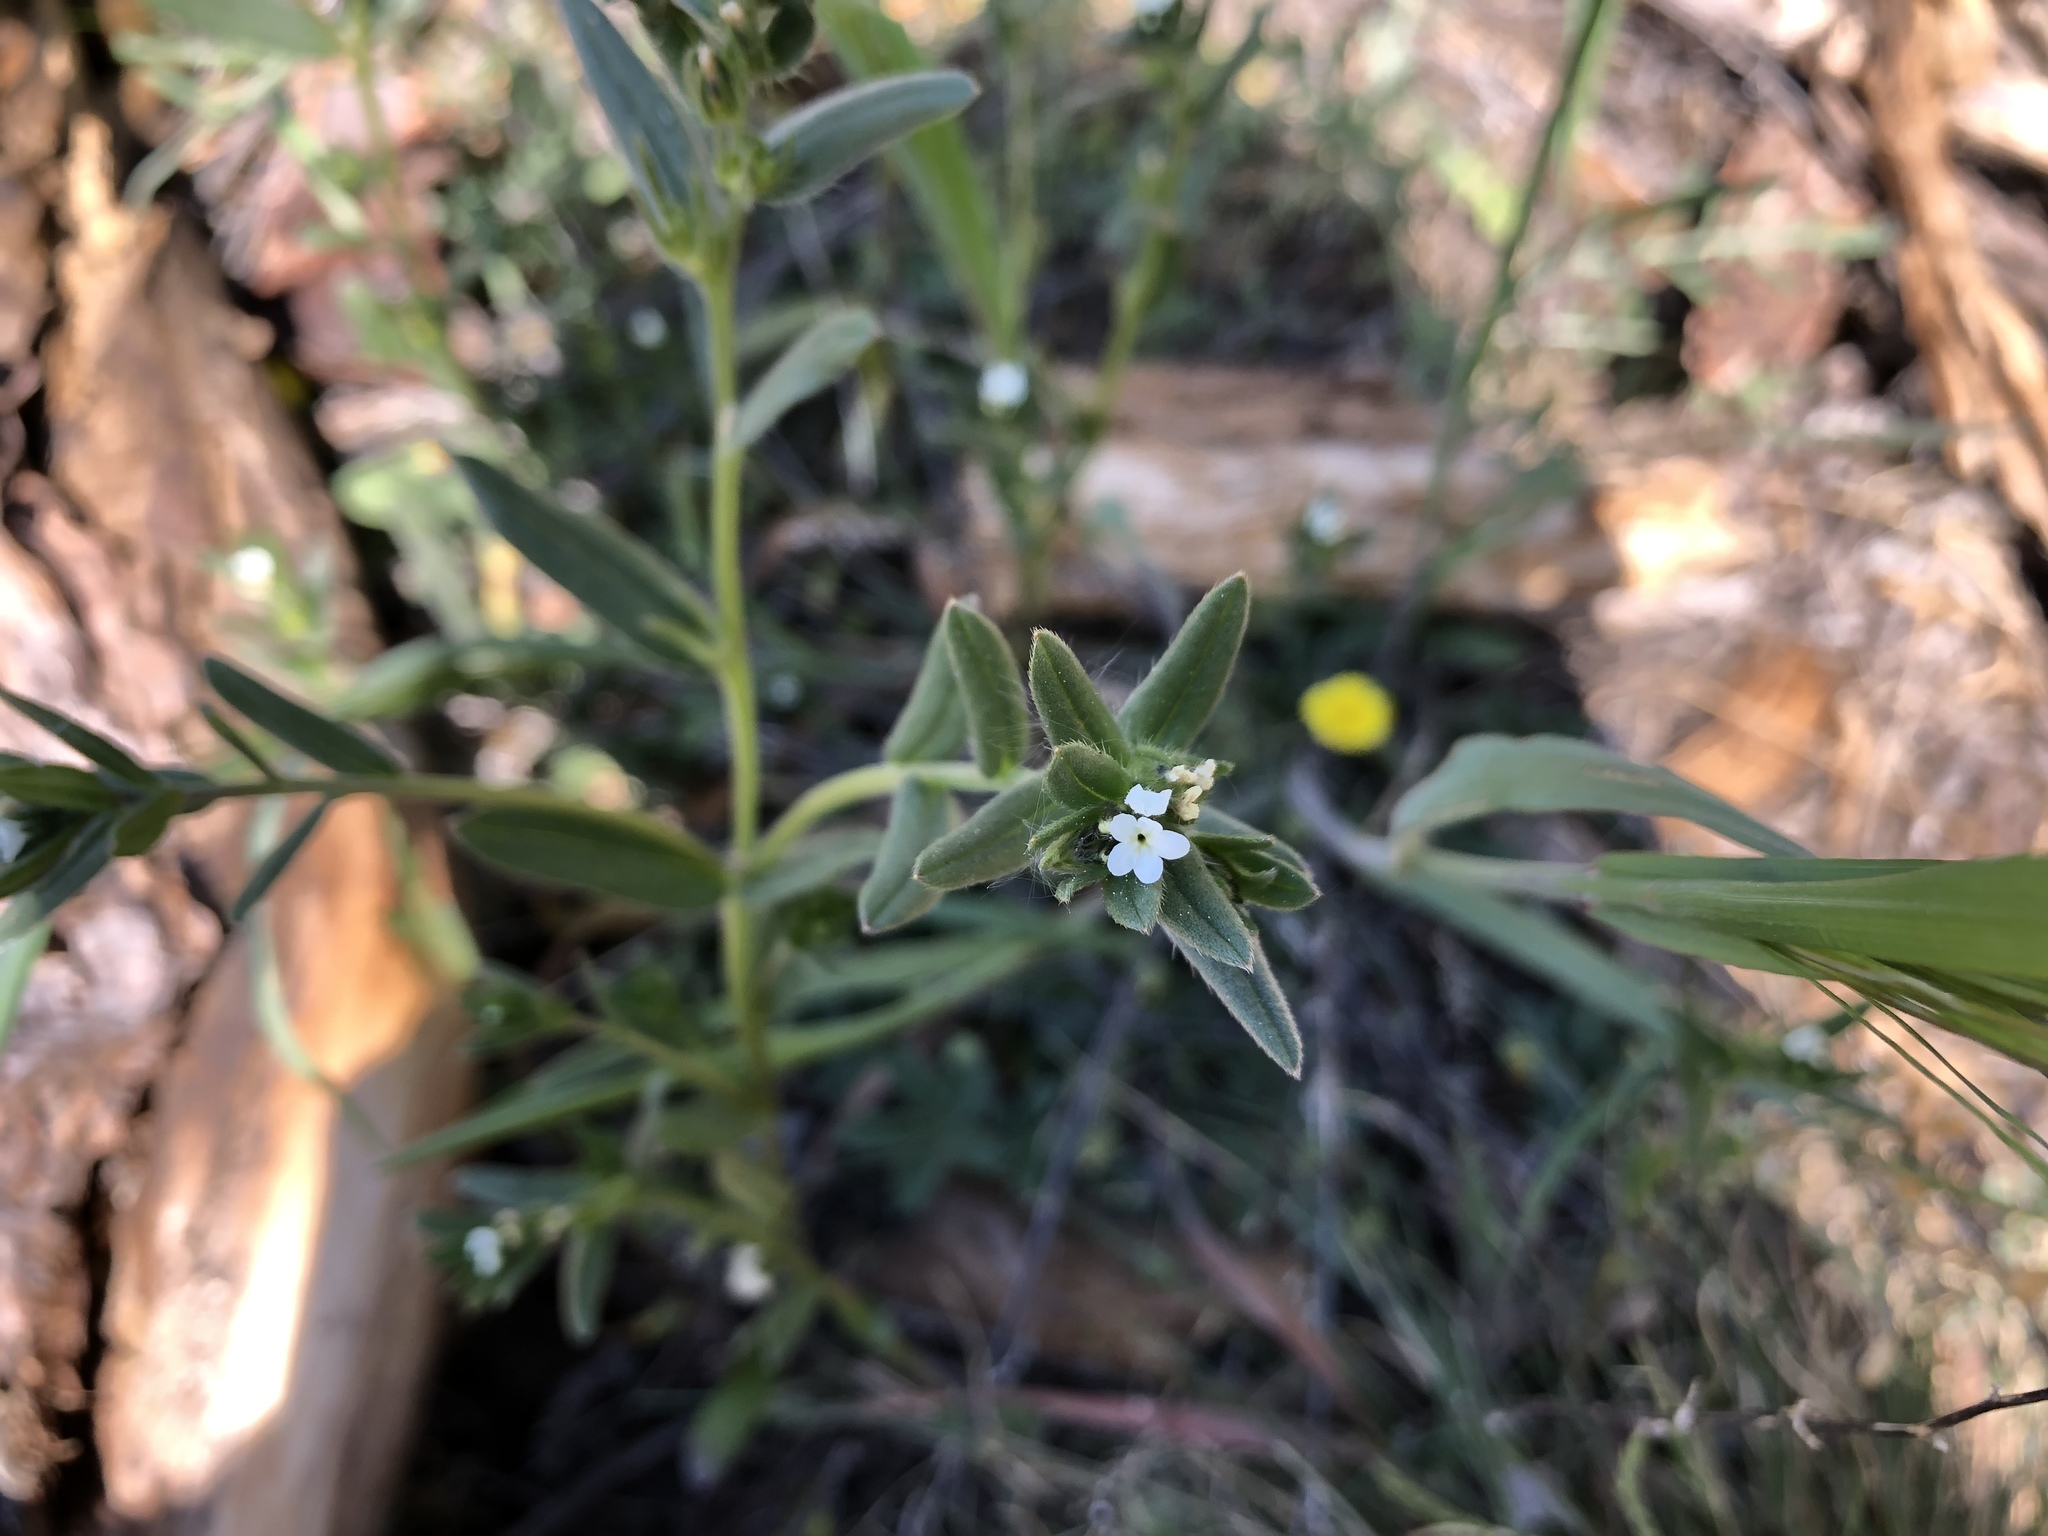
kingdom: Plantae
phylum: Tracheophyta
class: Magnoliopsida
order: Boraginales
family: Boraginaceae
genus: Buglossoides
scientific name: Buglossoides arvensis
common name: Corn gromwell
